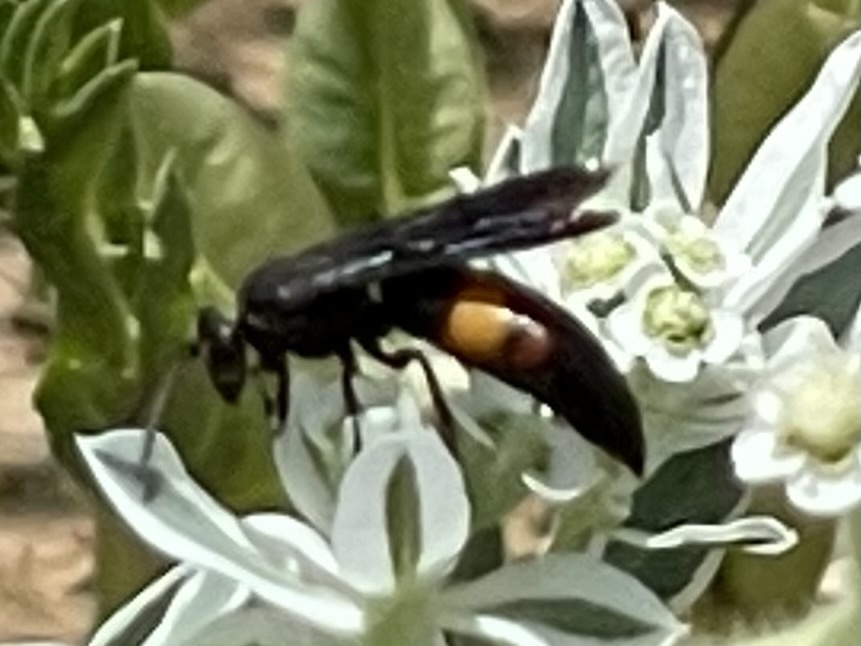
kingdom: Animalia
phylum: Arthropoda
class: Insecta
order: Hymenoptera
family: Crabronidae
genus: Stizoides
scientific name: Stizoides renicinctus
